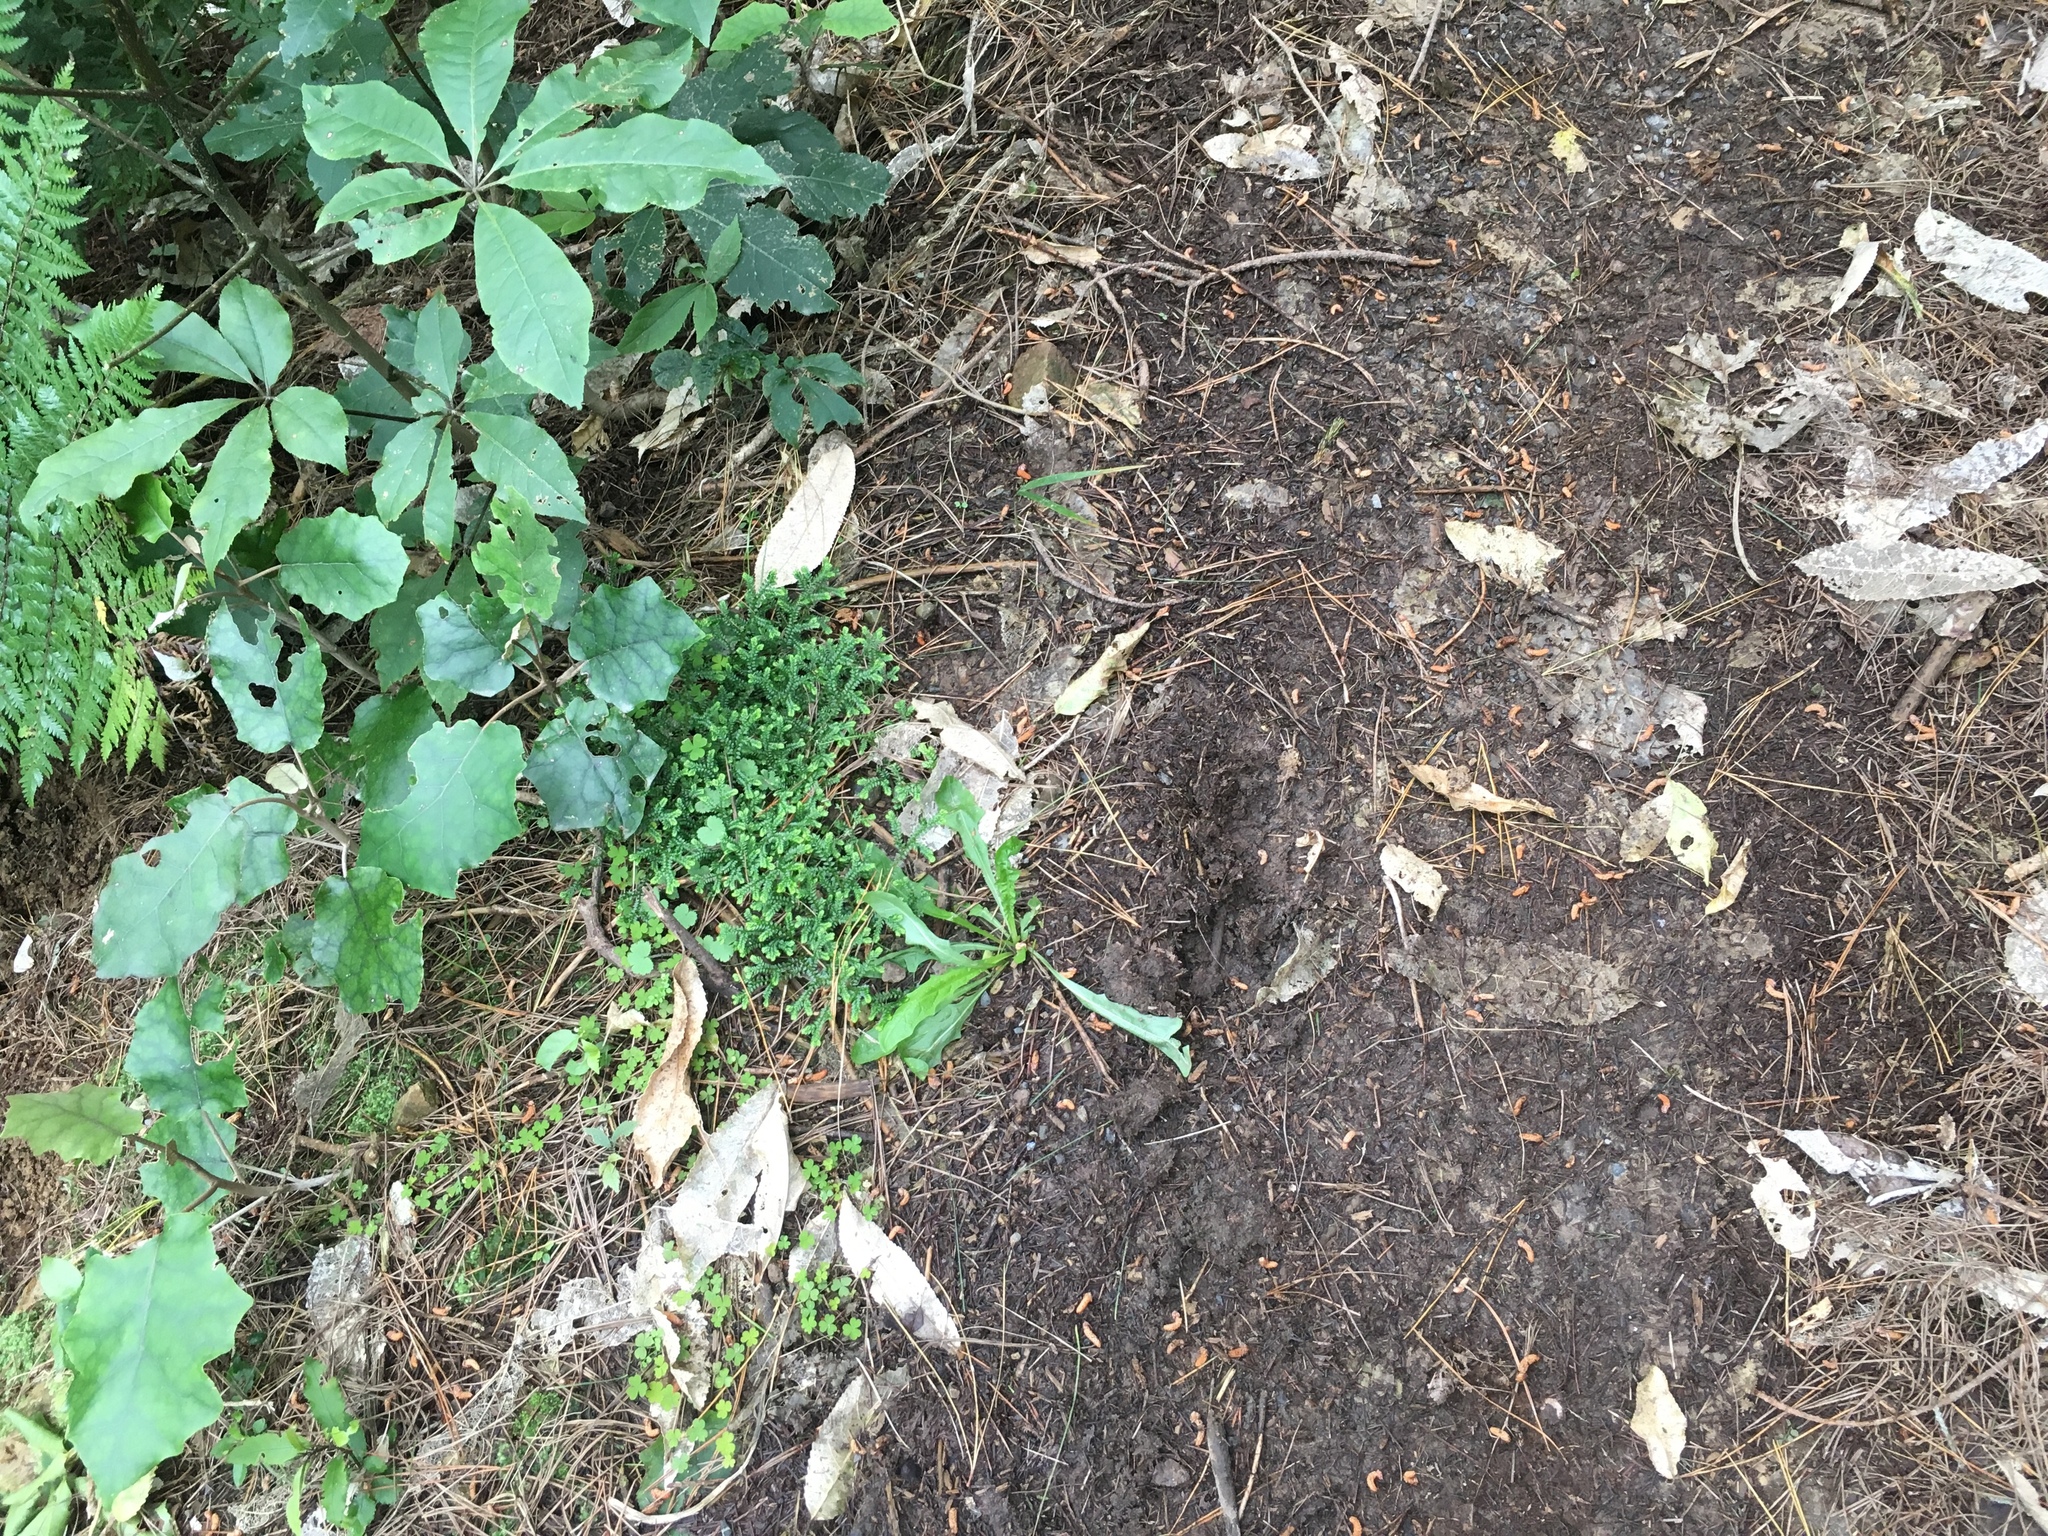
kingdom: Plantae
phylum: Tracheophyta
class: Lycopodiopsida
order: Selaginellales
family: Selaginellaceae
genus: Selaginella
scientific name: Selaginella kraussiana
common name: Krauss' spikemoss
